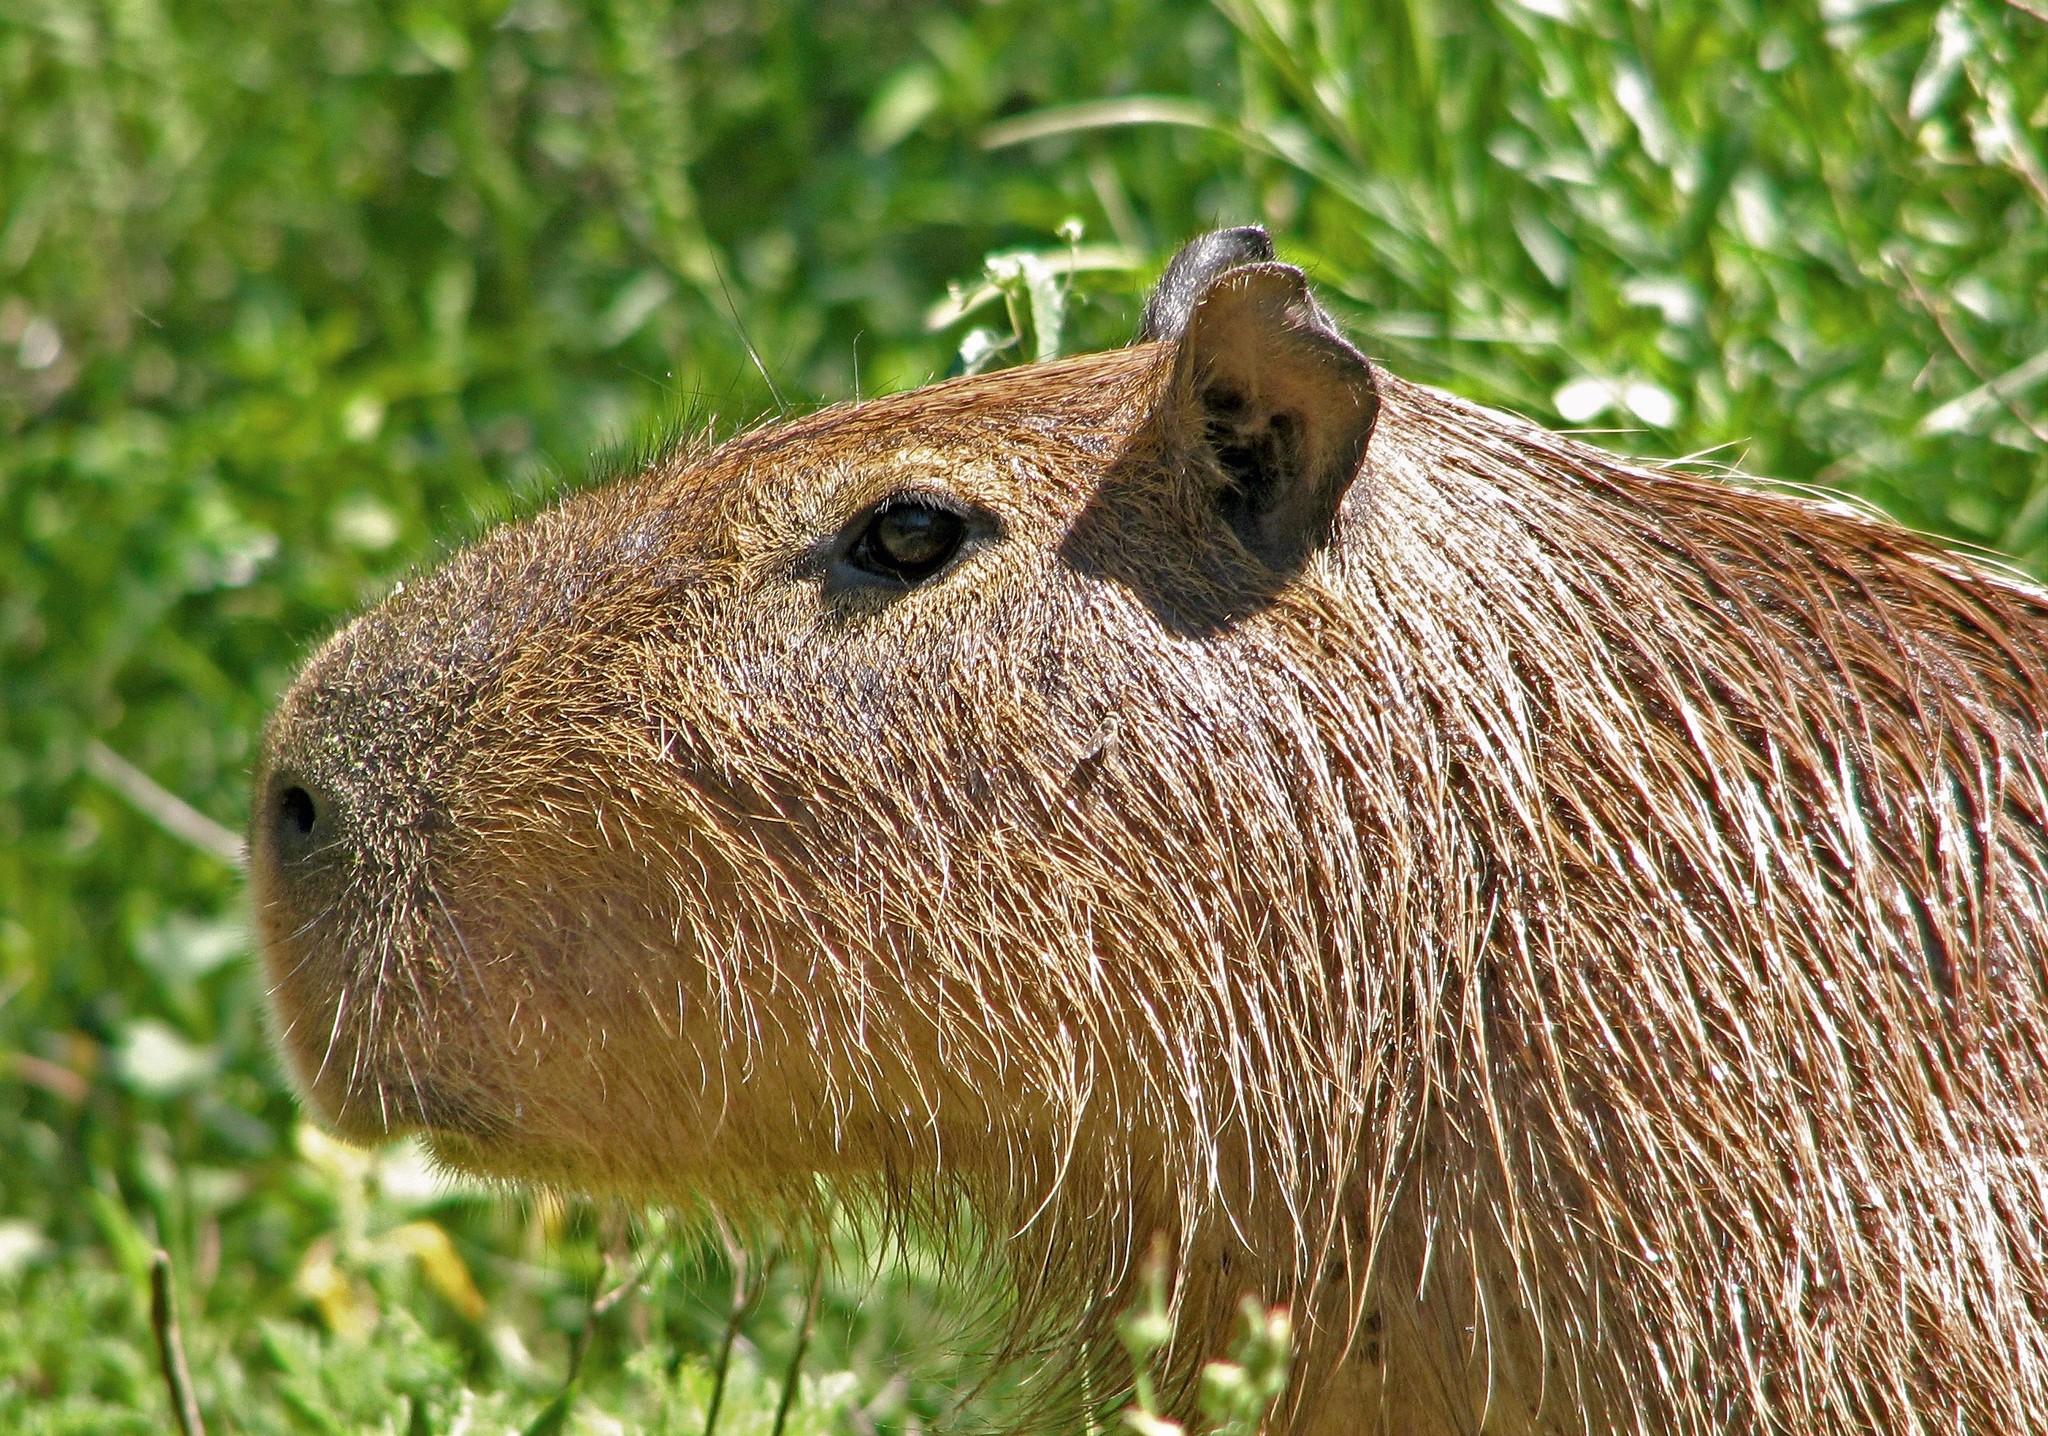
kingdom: Animalia
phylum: Chordata
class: Mammalia
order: Rodentia
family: Caviidae
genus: Hydrochoerus
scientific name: Hydrochoerus hydrochaeris
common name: Capybara
